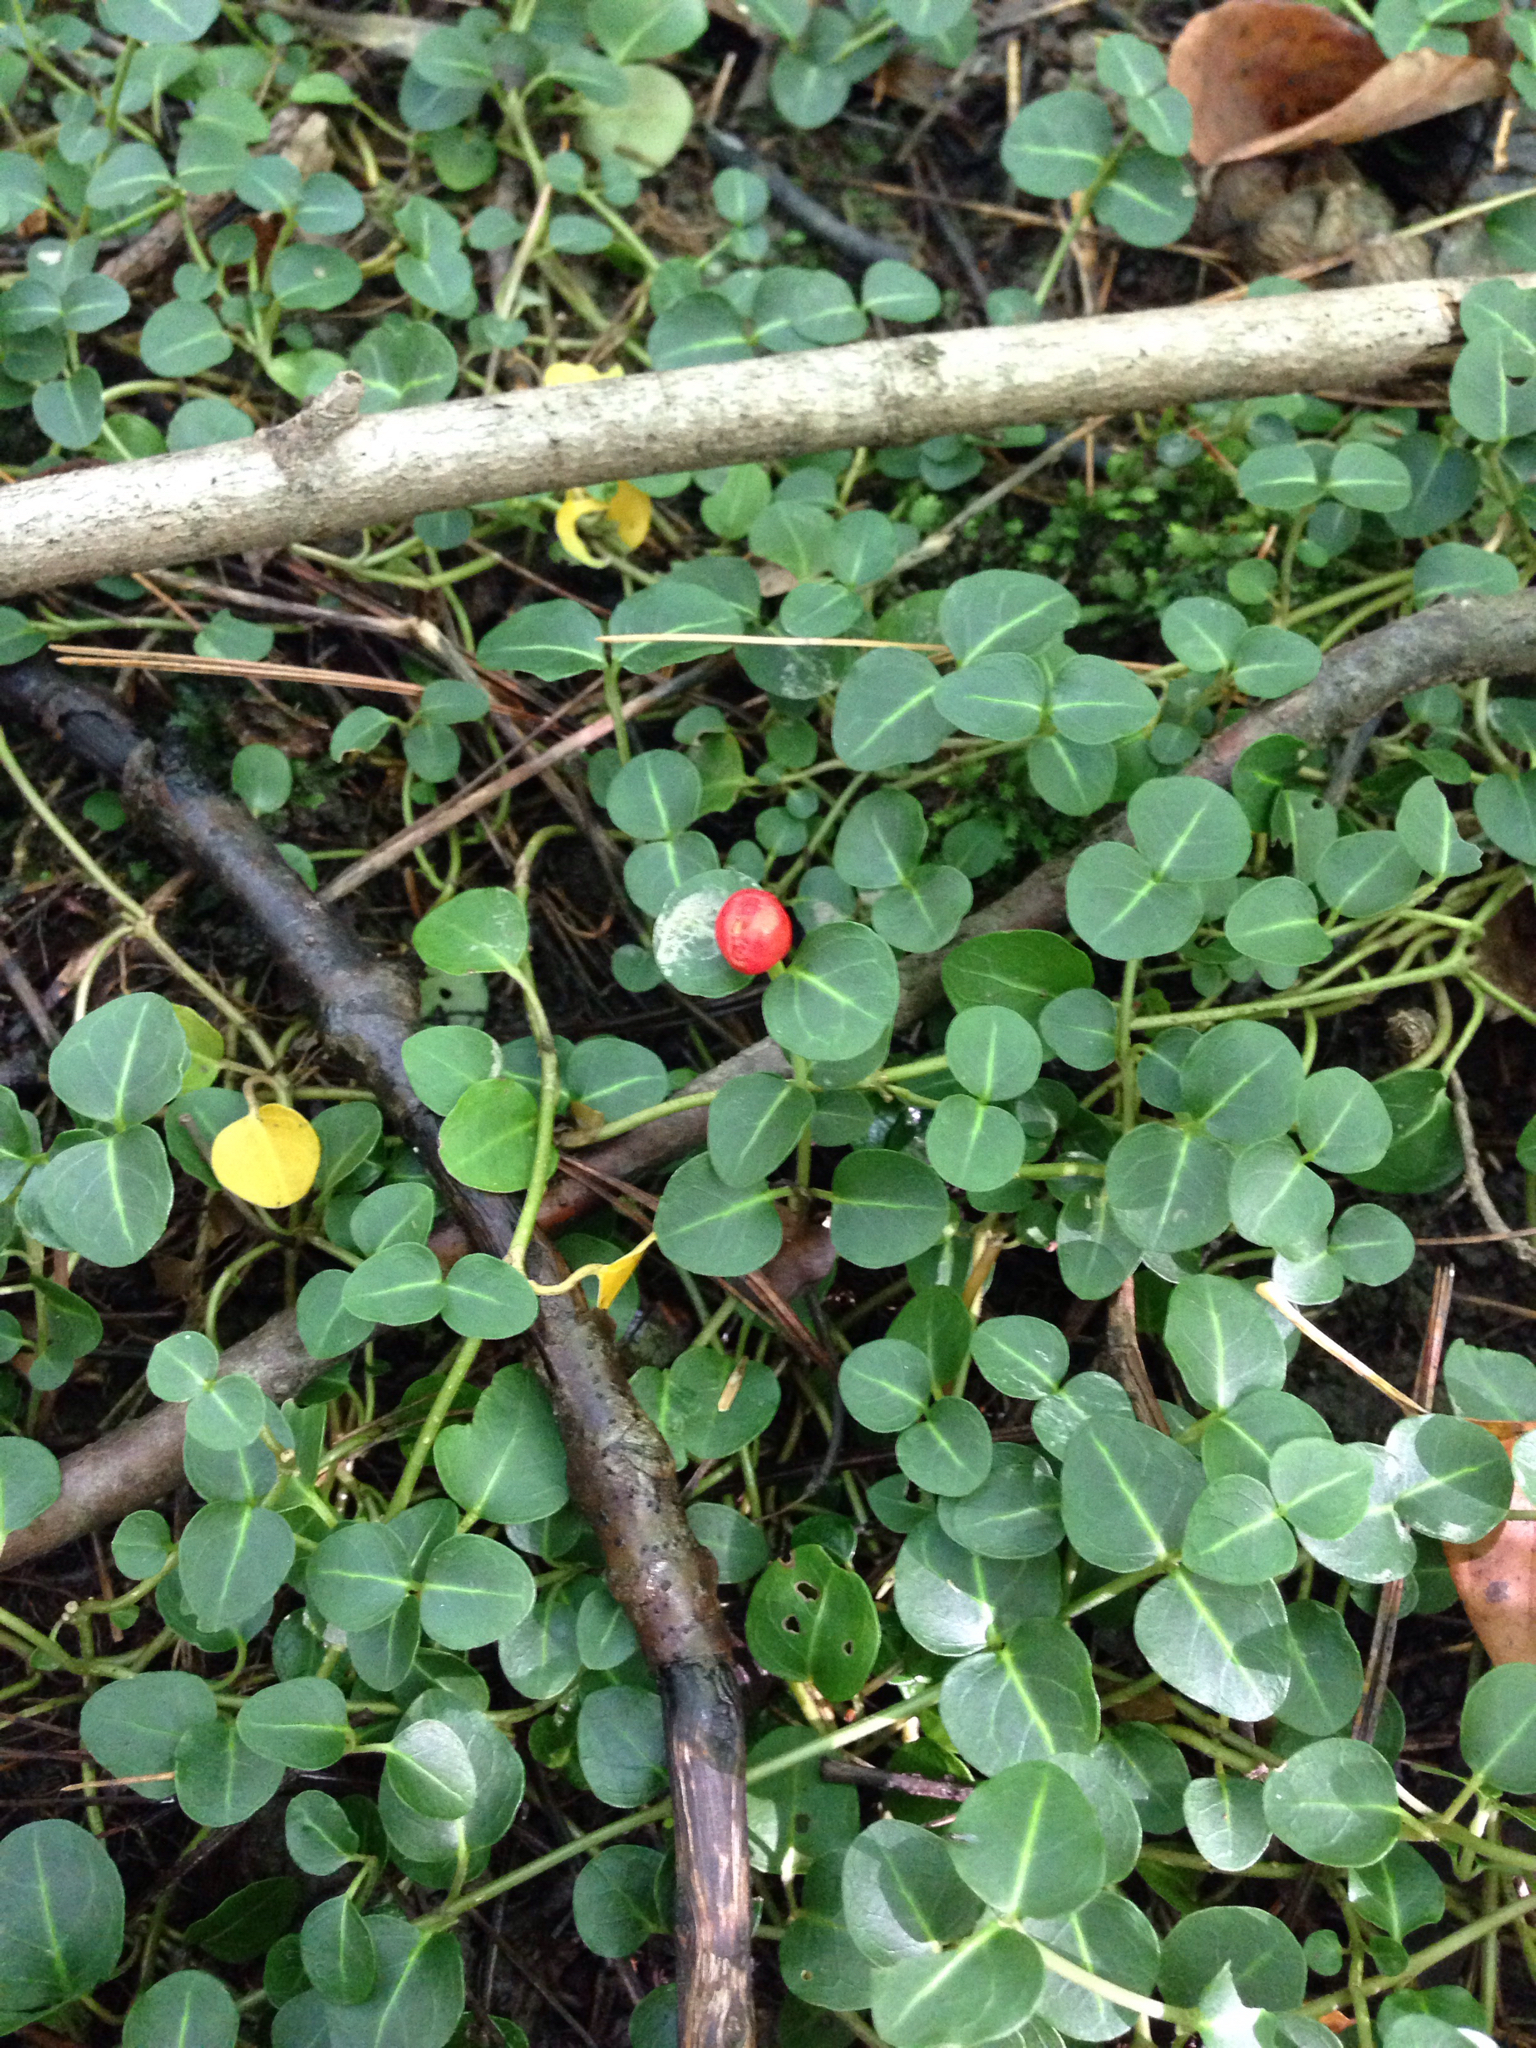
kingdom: Plantae
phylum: Tracheophyta
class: Magnoliopsida
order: Gentianales
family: Rubiaceae
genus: Mitchella
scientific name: Mitchella repens
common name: Partridge-berry
